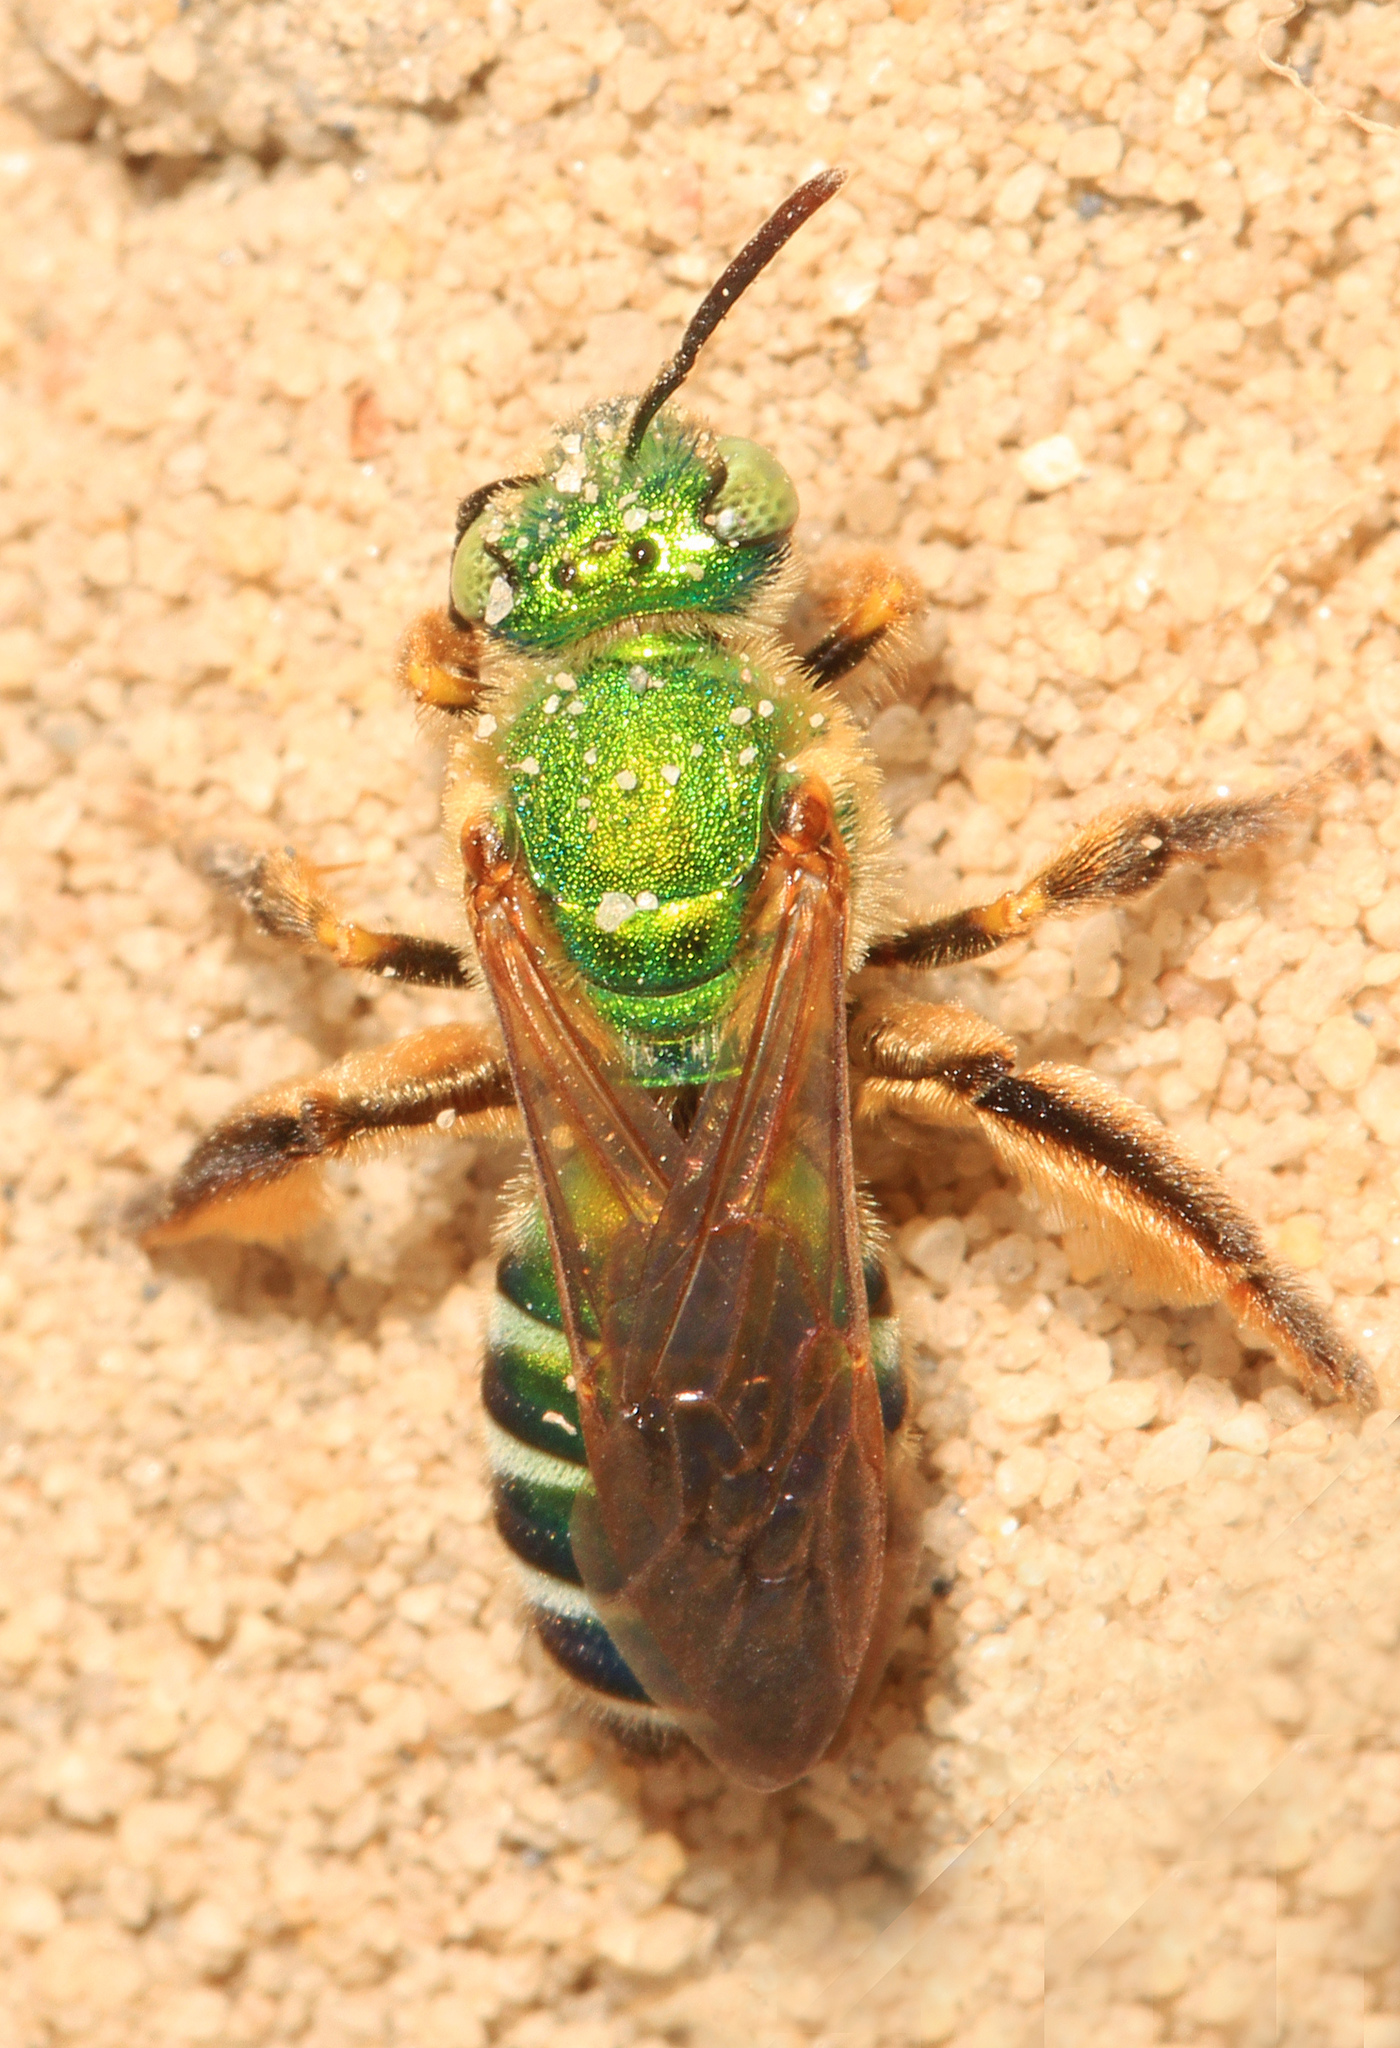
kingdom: Animalia
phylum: Arthropoda
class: Insecta
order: Hymenoptera
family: Halictidae
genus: Agapostemon
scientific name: Agapostemon splendens
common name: Brown-winged striped sweat bee
